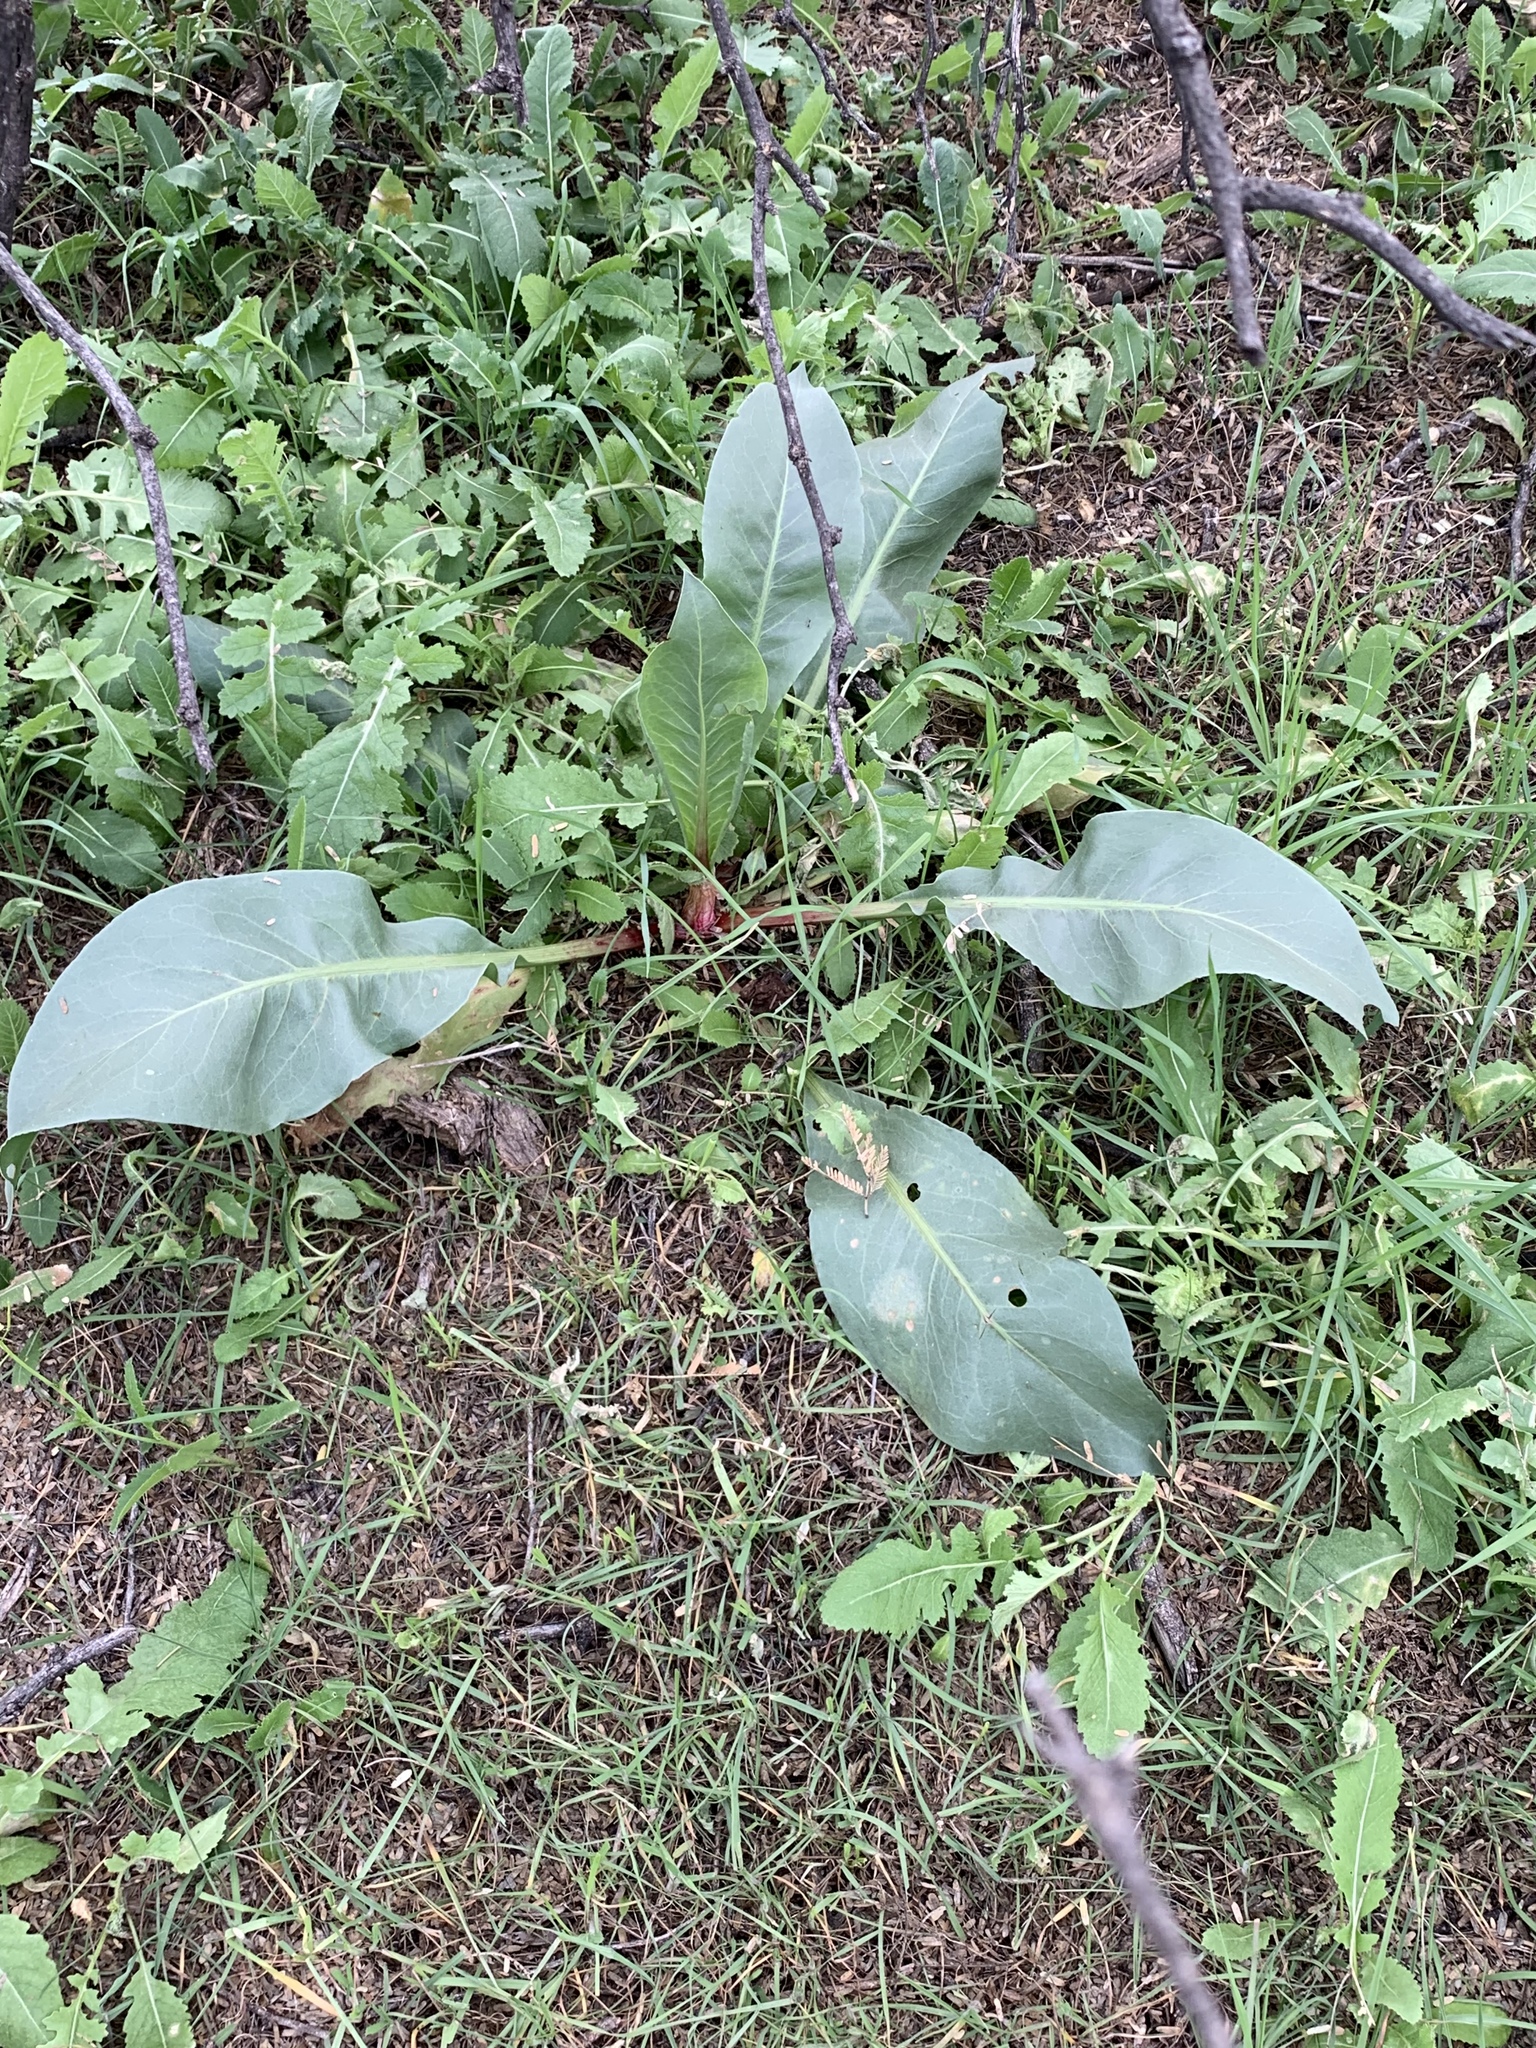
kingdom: Plantae
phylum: Tracheophyta
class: Magnoliopsida
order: Caryophyllales
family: Polygonaceae
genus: Rumex
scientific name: Rumex hymenosepalus
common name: Ganagra
